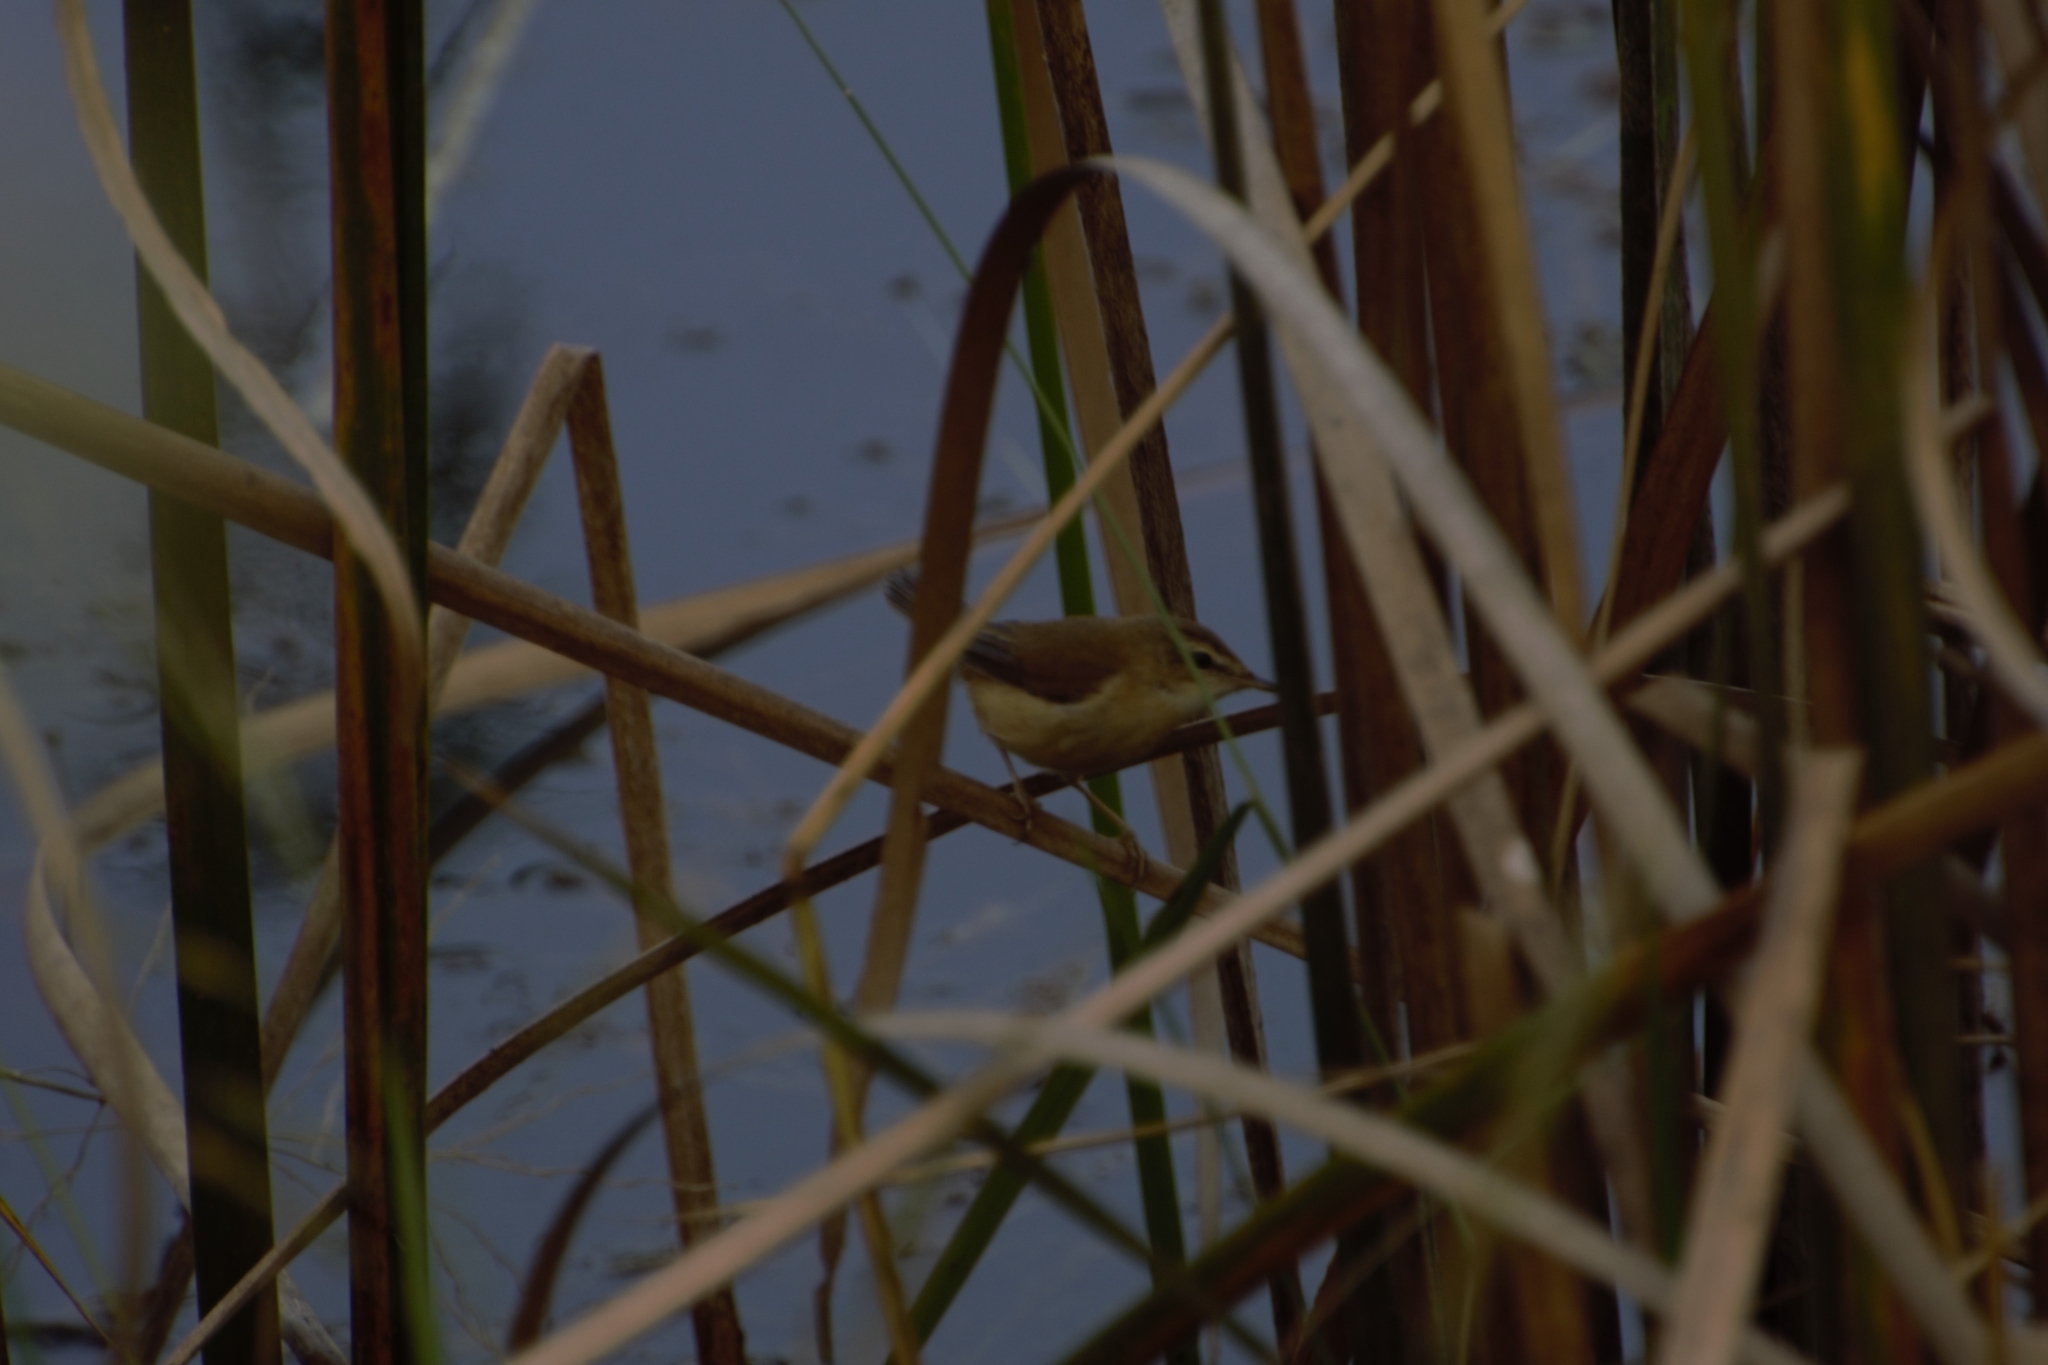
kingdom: Animalia
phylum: Chordata
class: Aves
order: Passeriformes
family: Acrocephalidae
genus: Acrocephalus
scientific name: Acrocephalus agricola
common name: Paddyfield warbler
